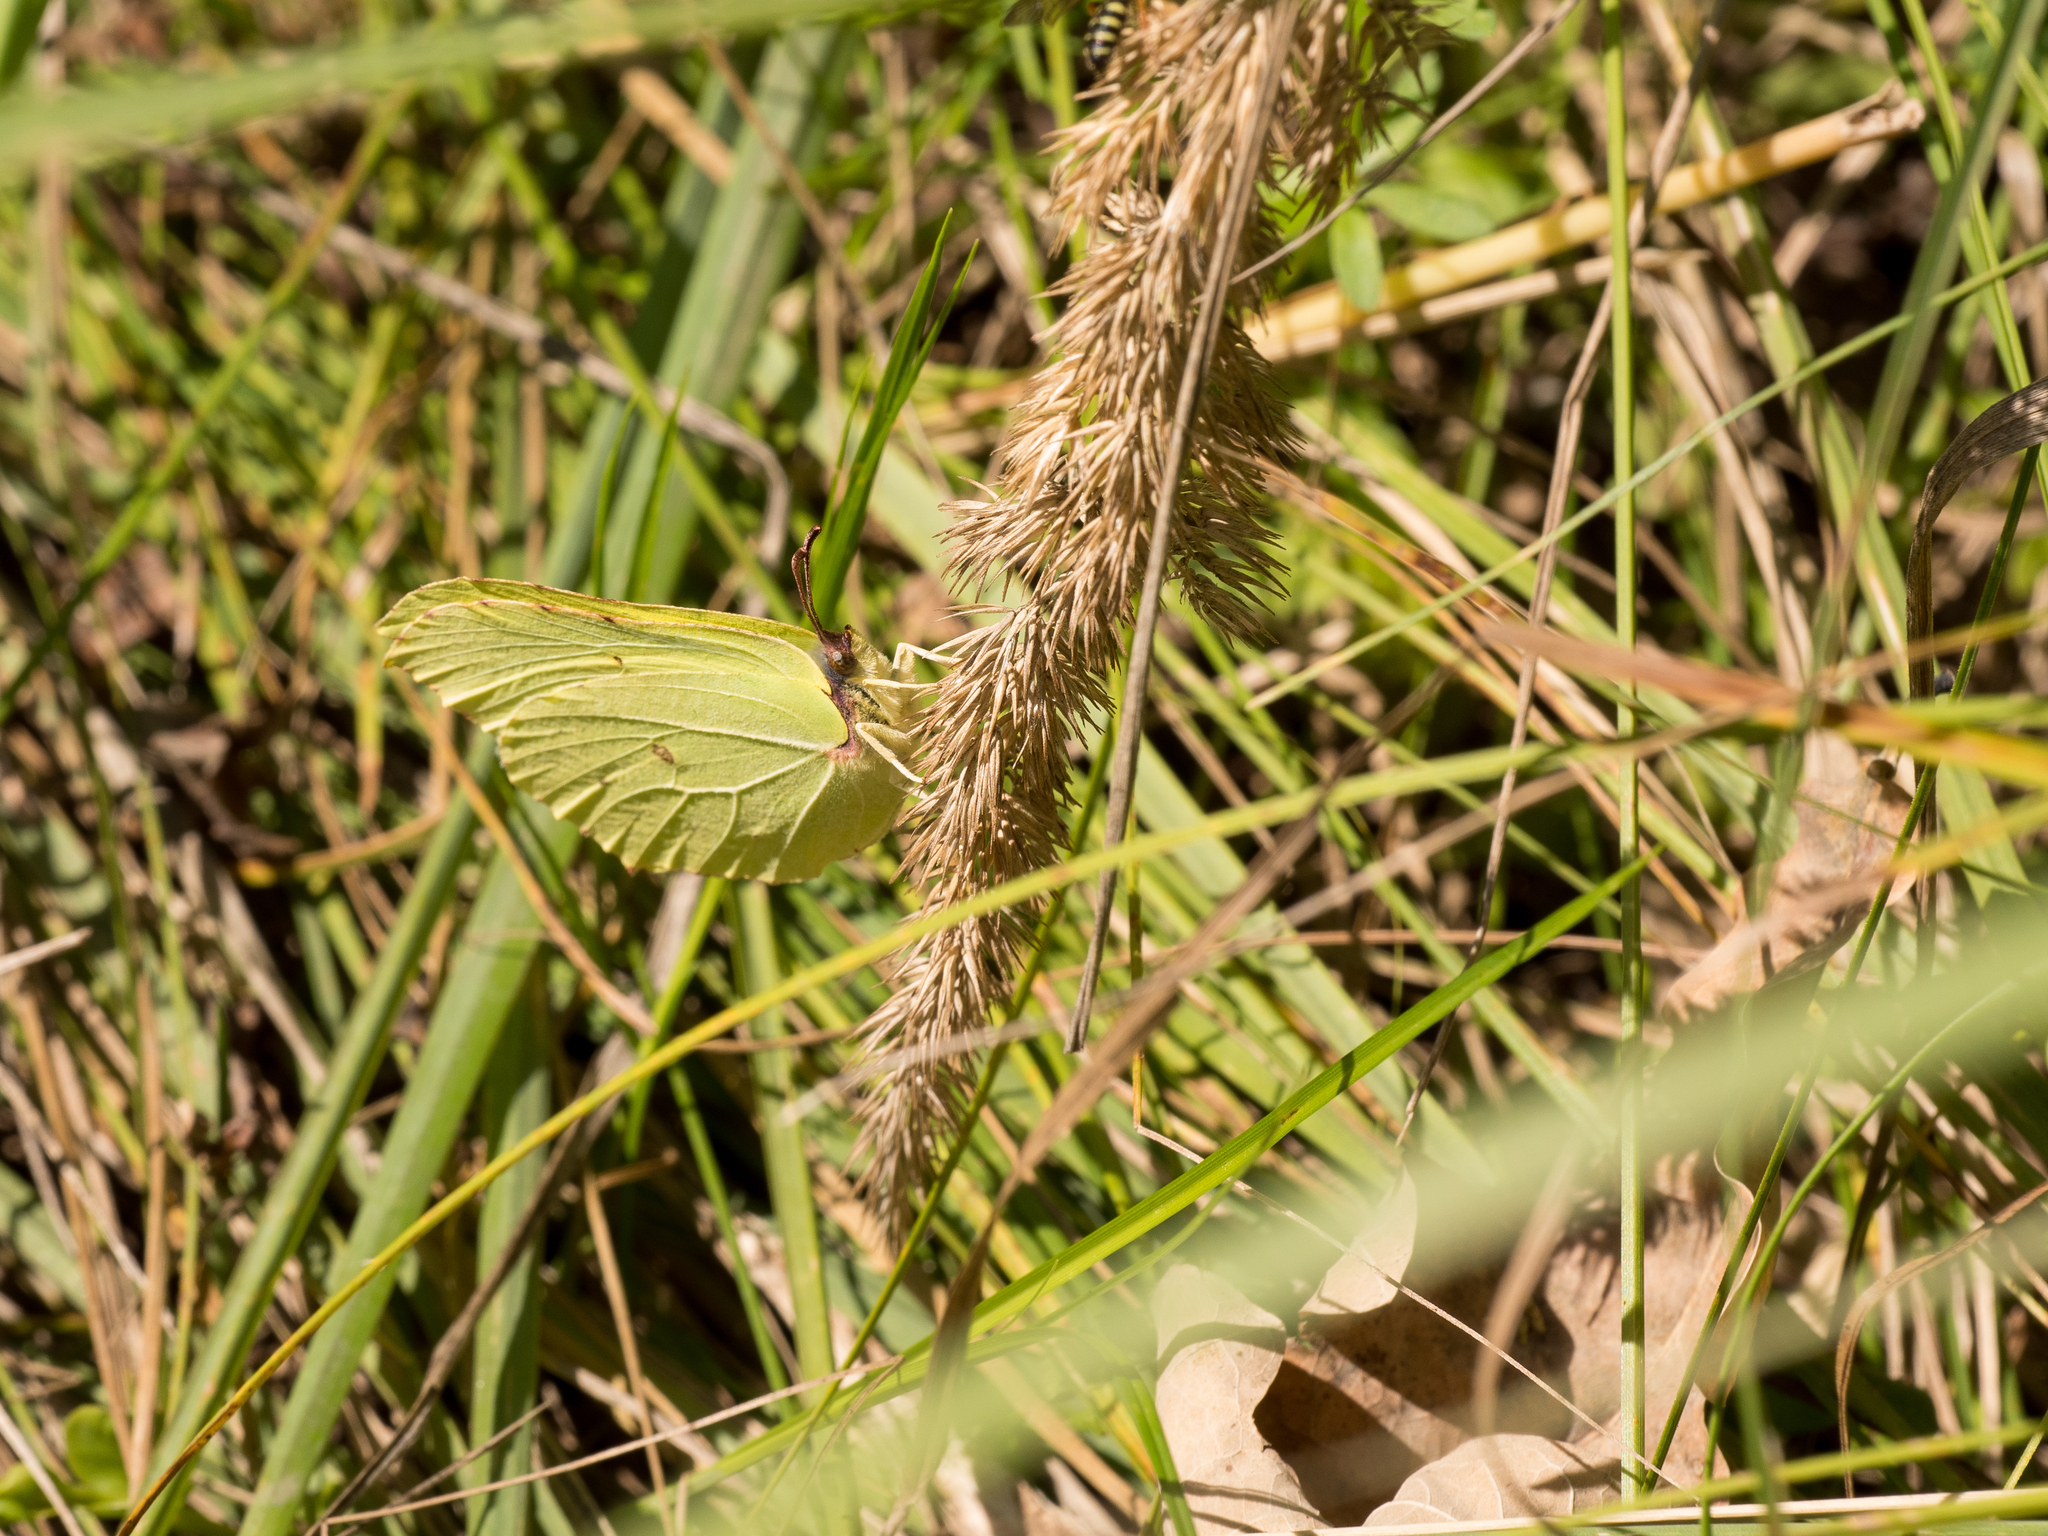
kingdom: Animalia
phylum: Arthropoda
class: Insecta
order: Lepidoptera
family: Pieridae
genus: Gonepteryx
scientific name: Gonepteryx rhamni
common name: Brimstone
